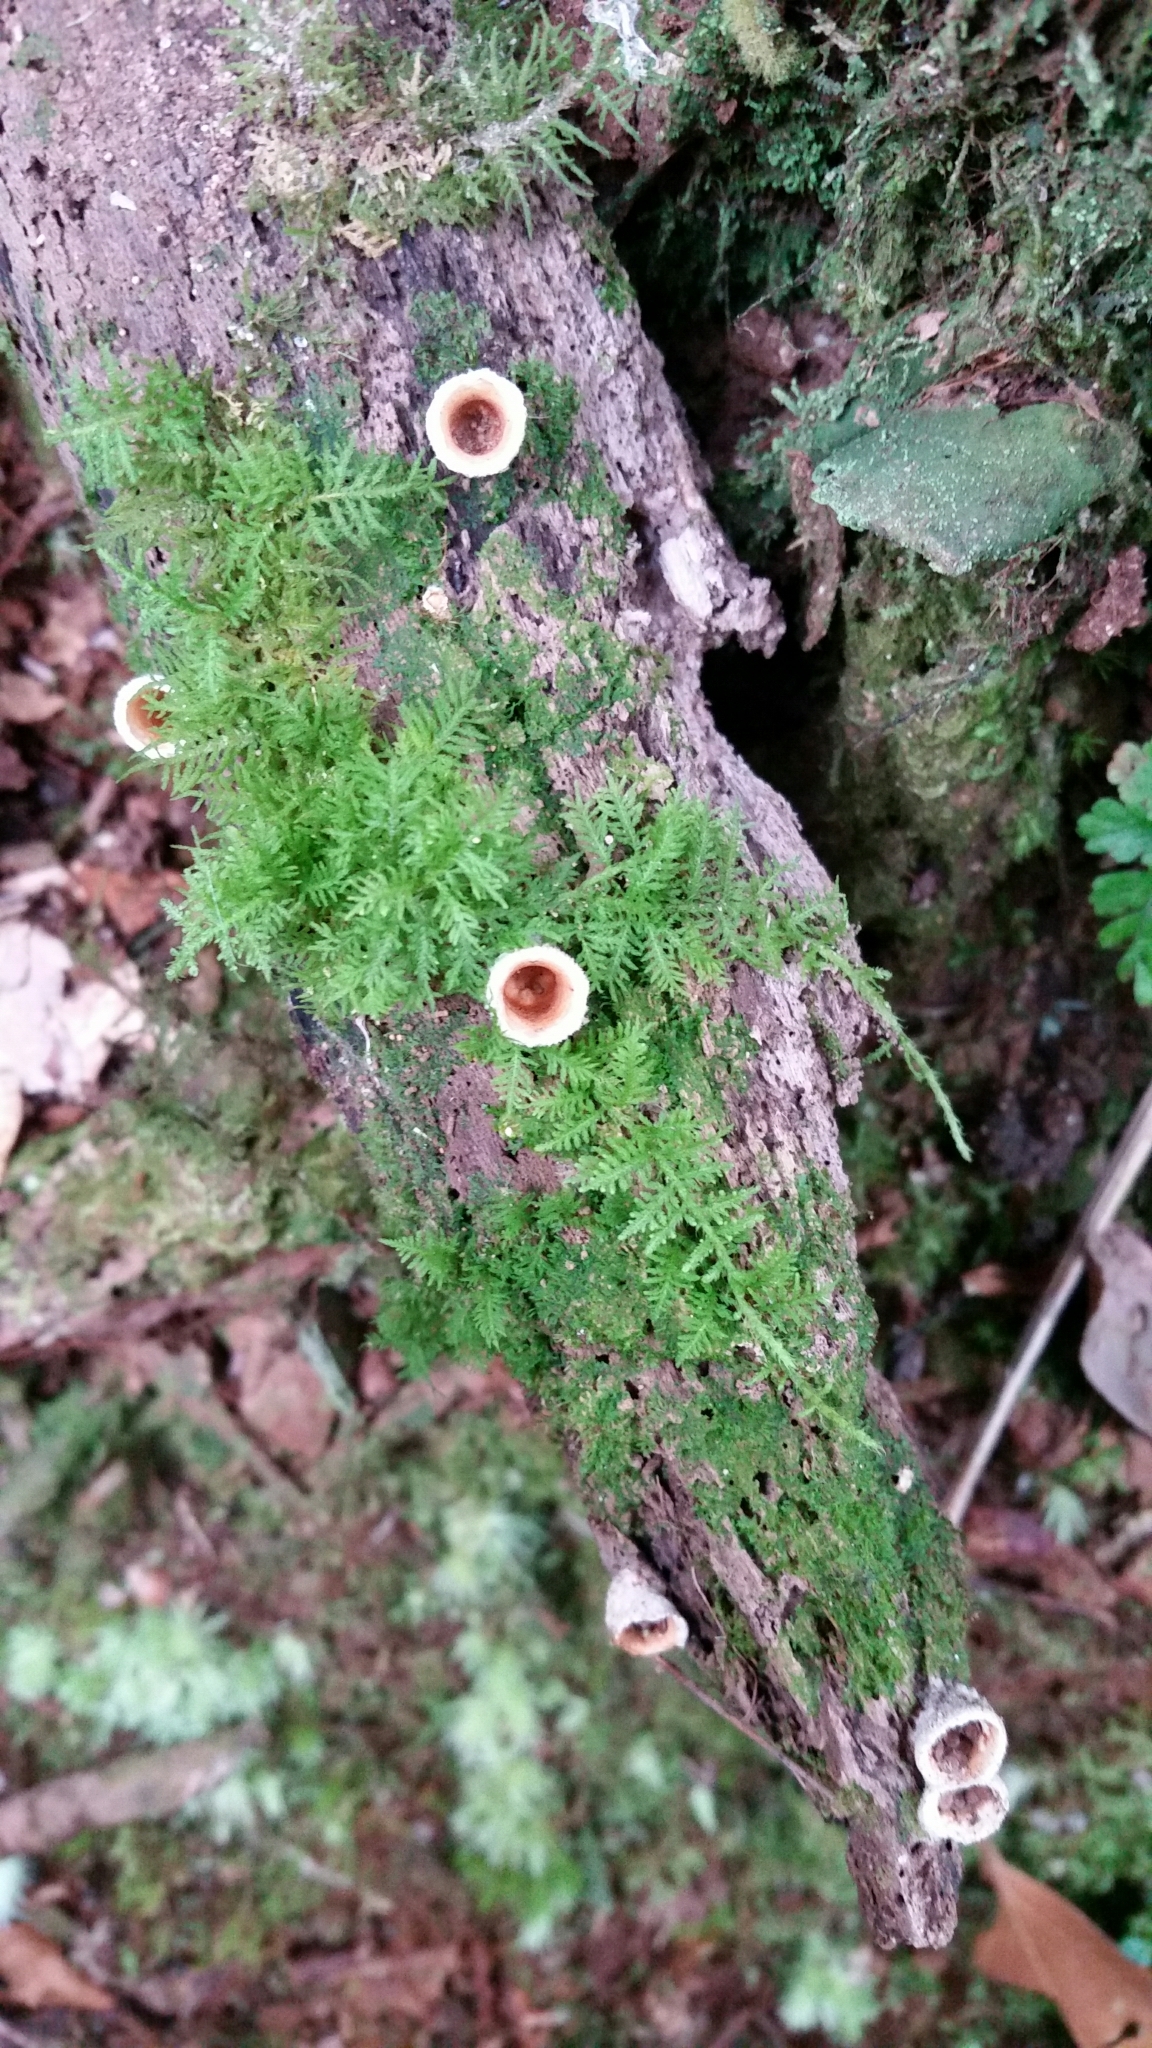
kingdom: Fungi
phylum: Basidiomycota
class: Agaricomycetes
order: Agaricales
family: Agaricaceae
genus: Nidula
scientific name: Nidula candida
